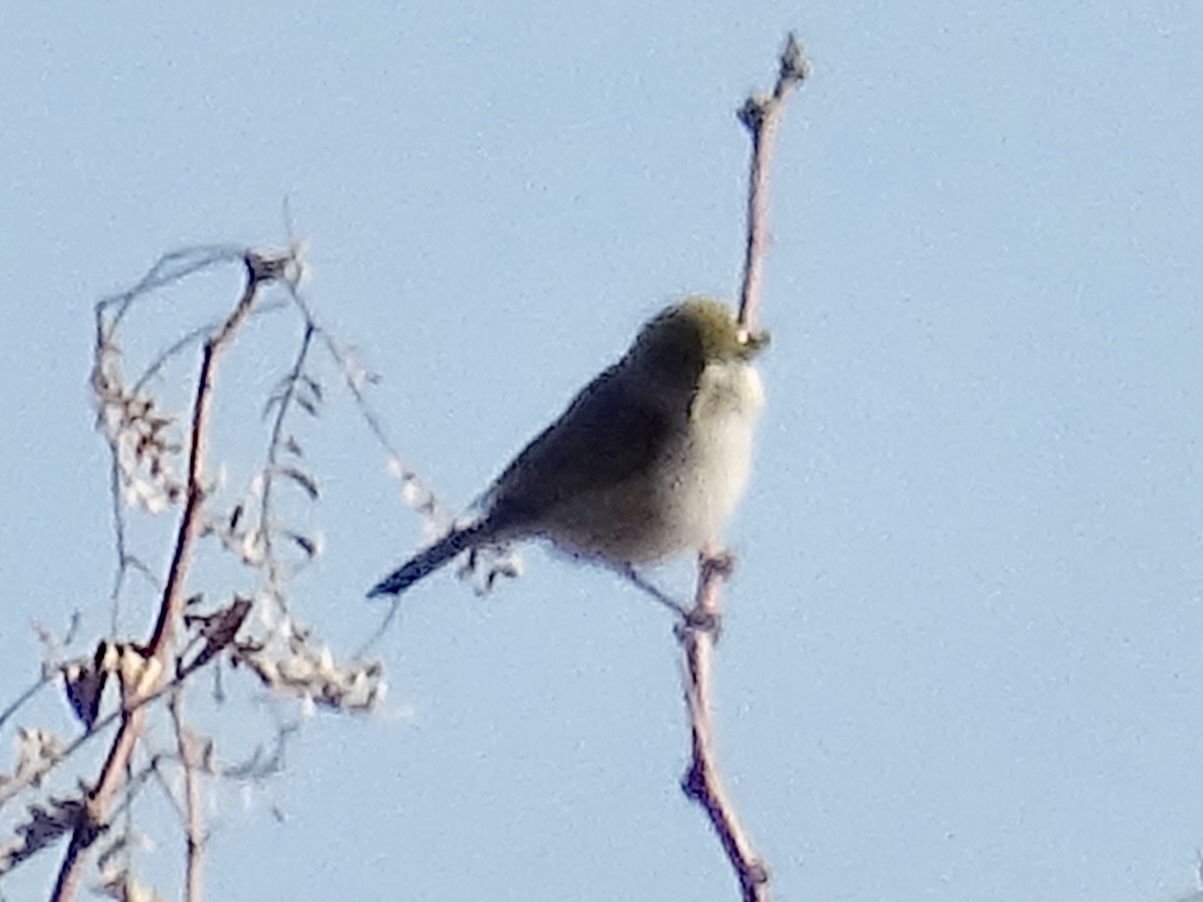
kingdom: Animalia
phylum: Chordata
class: Aves
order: Passeriformes
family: Remizidae
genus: Auriparus
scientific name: Auriparus flaviceps
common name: Verdin
